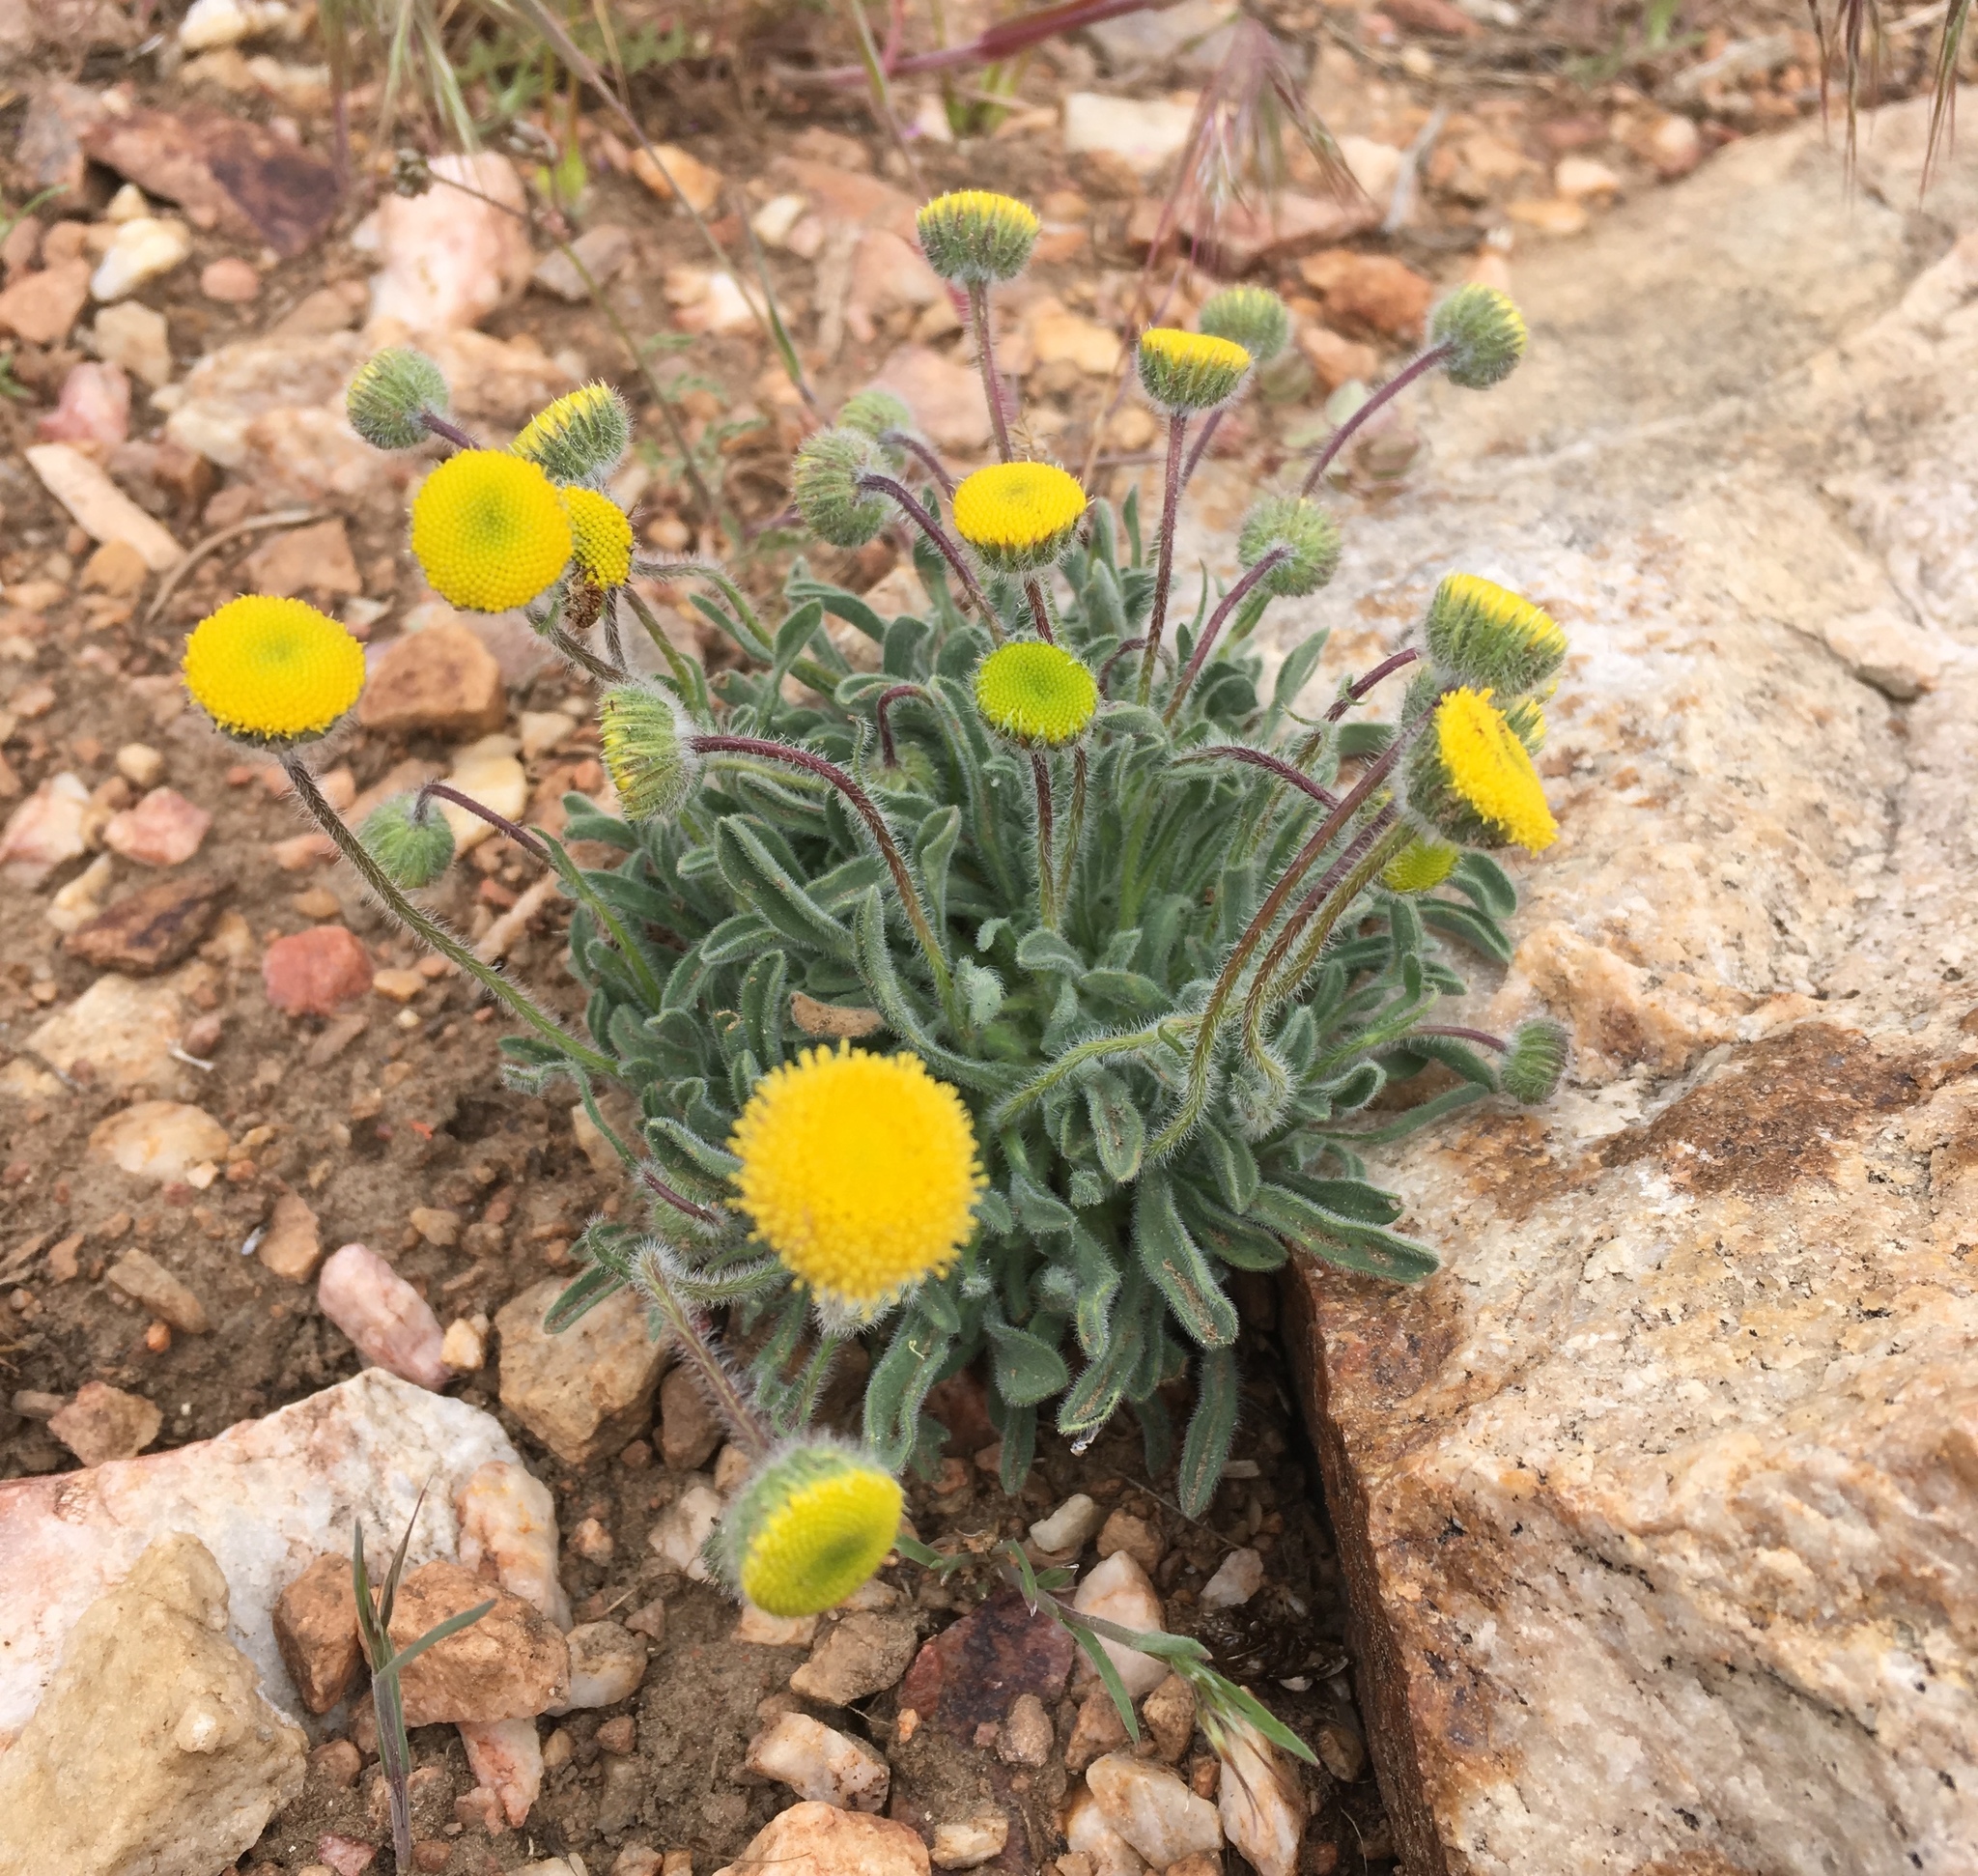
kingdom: Plantae
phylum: Tracheophyta
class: Magnoliopsida
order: Asterales
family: Asteraceae
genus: Erigeron
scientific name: Erigeron aphanactis
